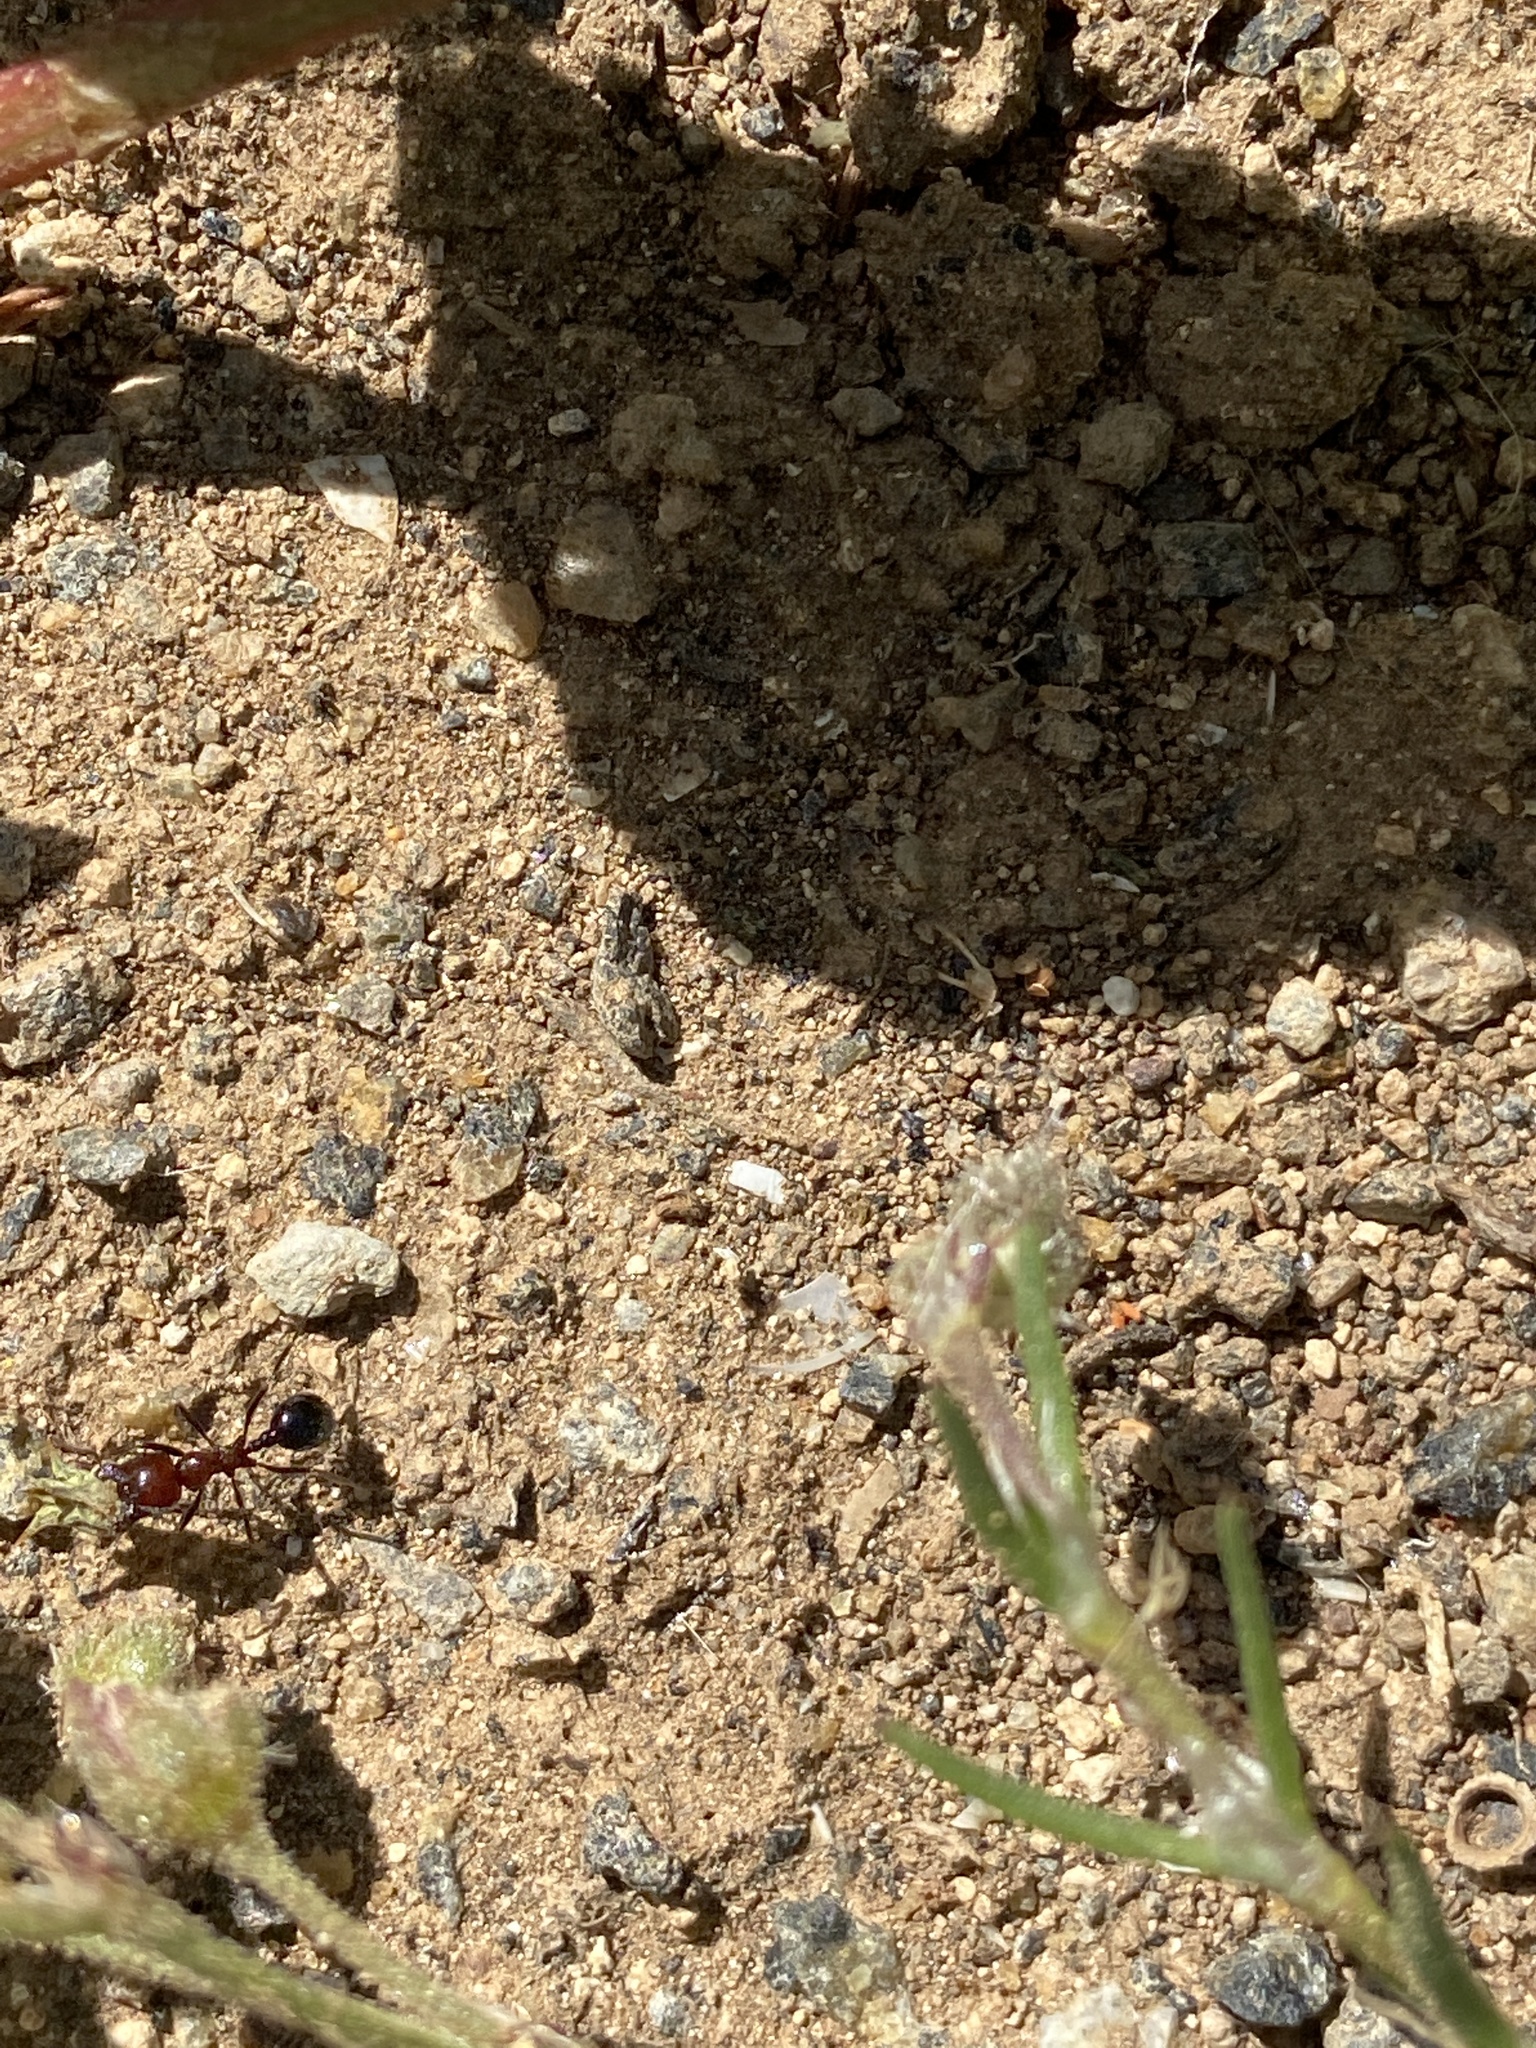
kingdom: Animalia
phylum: Arthropoda
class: Insecta
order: Hymenoptera
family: Formicidae
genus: Messor
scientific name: Messor minor
